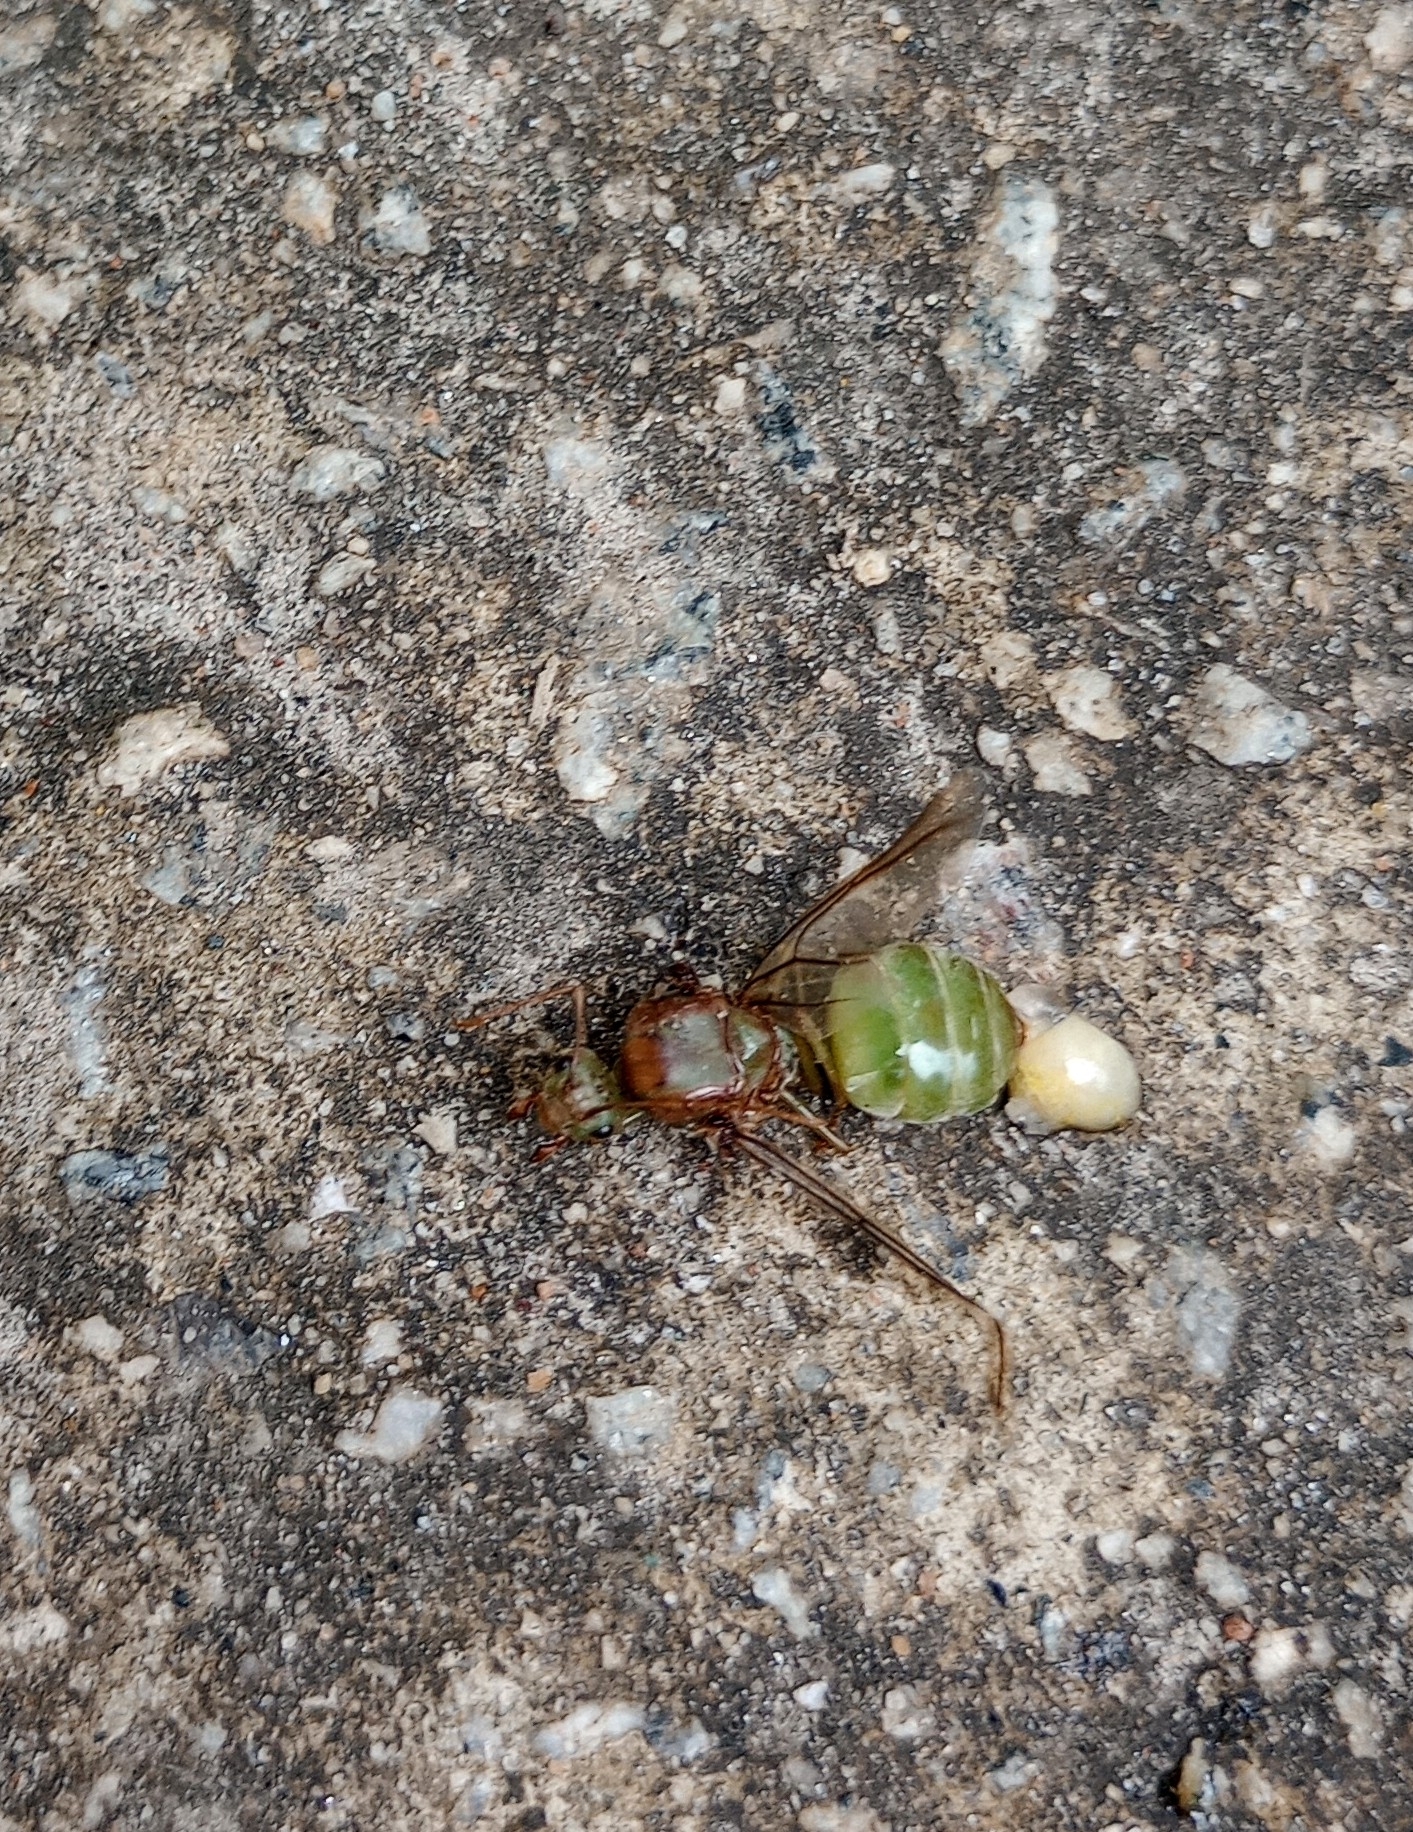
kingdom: Animalia
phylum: Arthropoda
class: Insecta
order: Hymenoptera
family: Formicidae
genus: Oecophylla
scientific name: Oecophylla smaragdina
